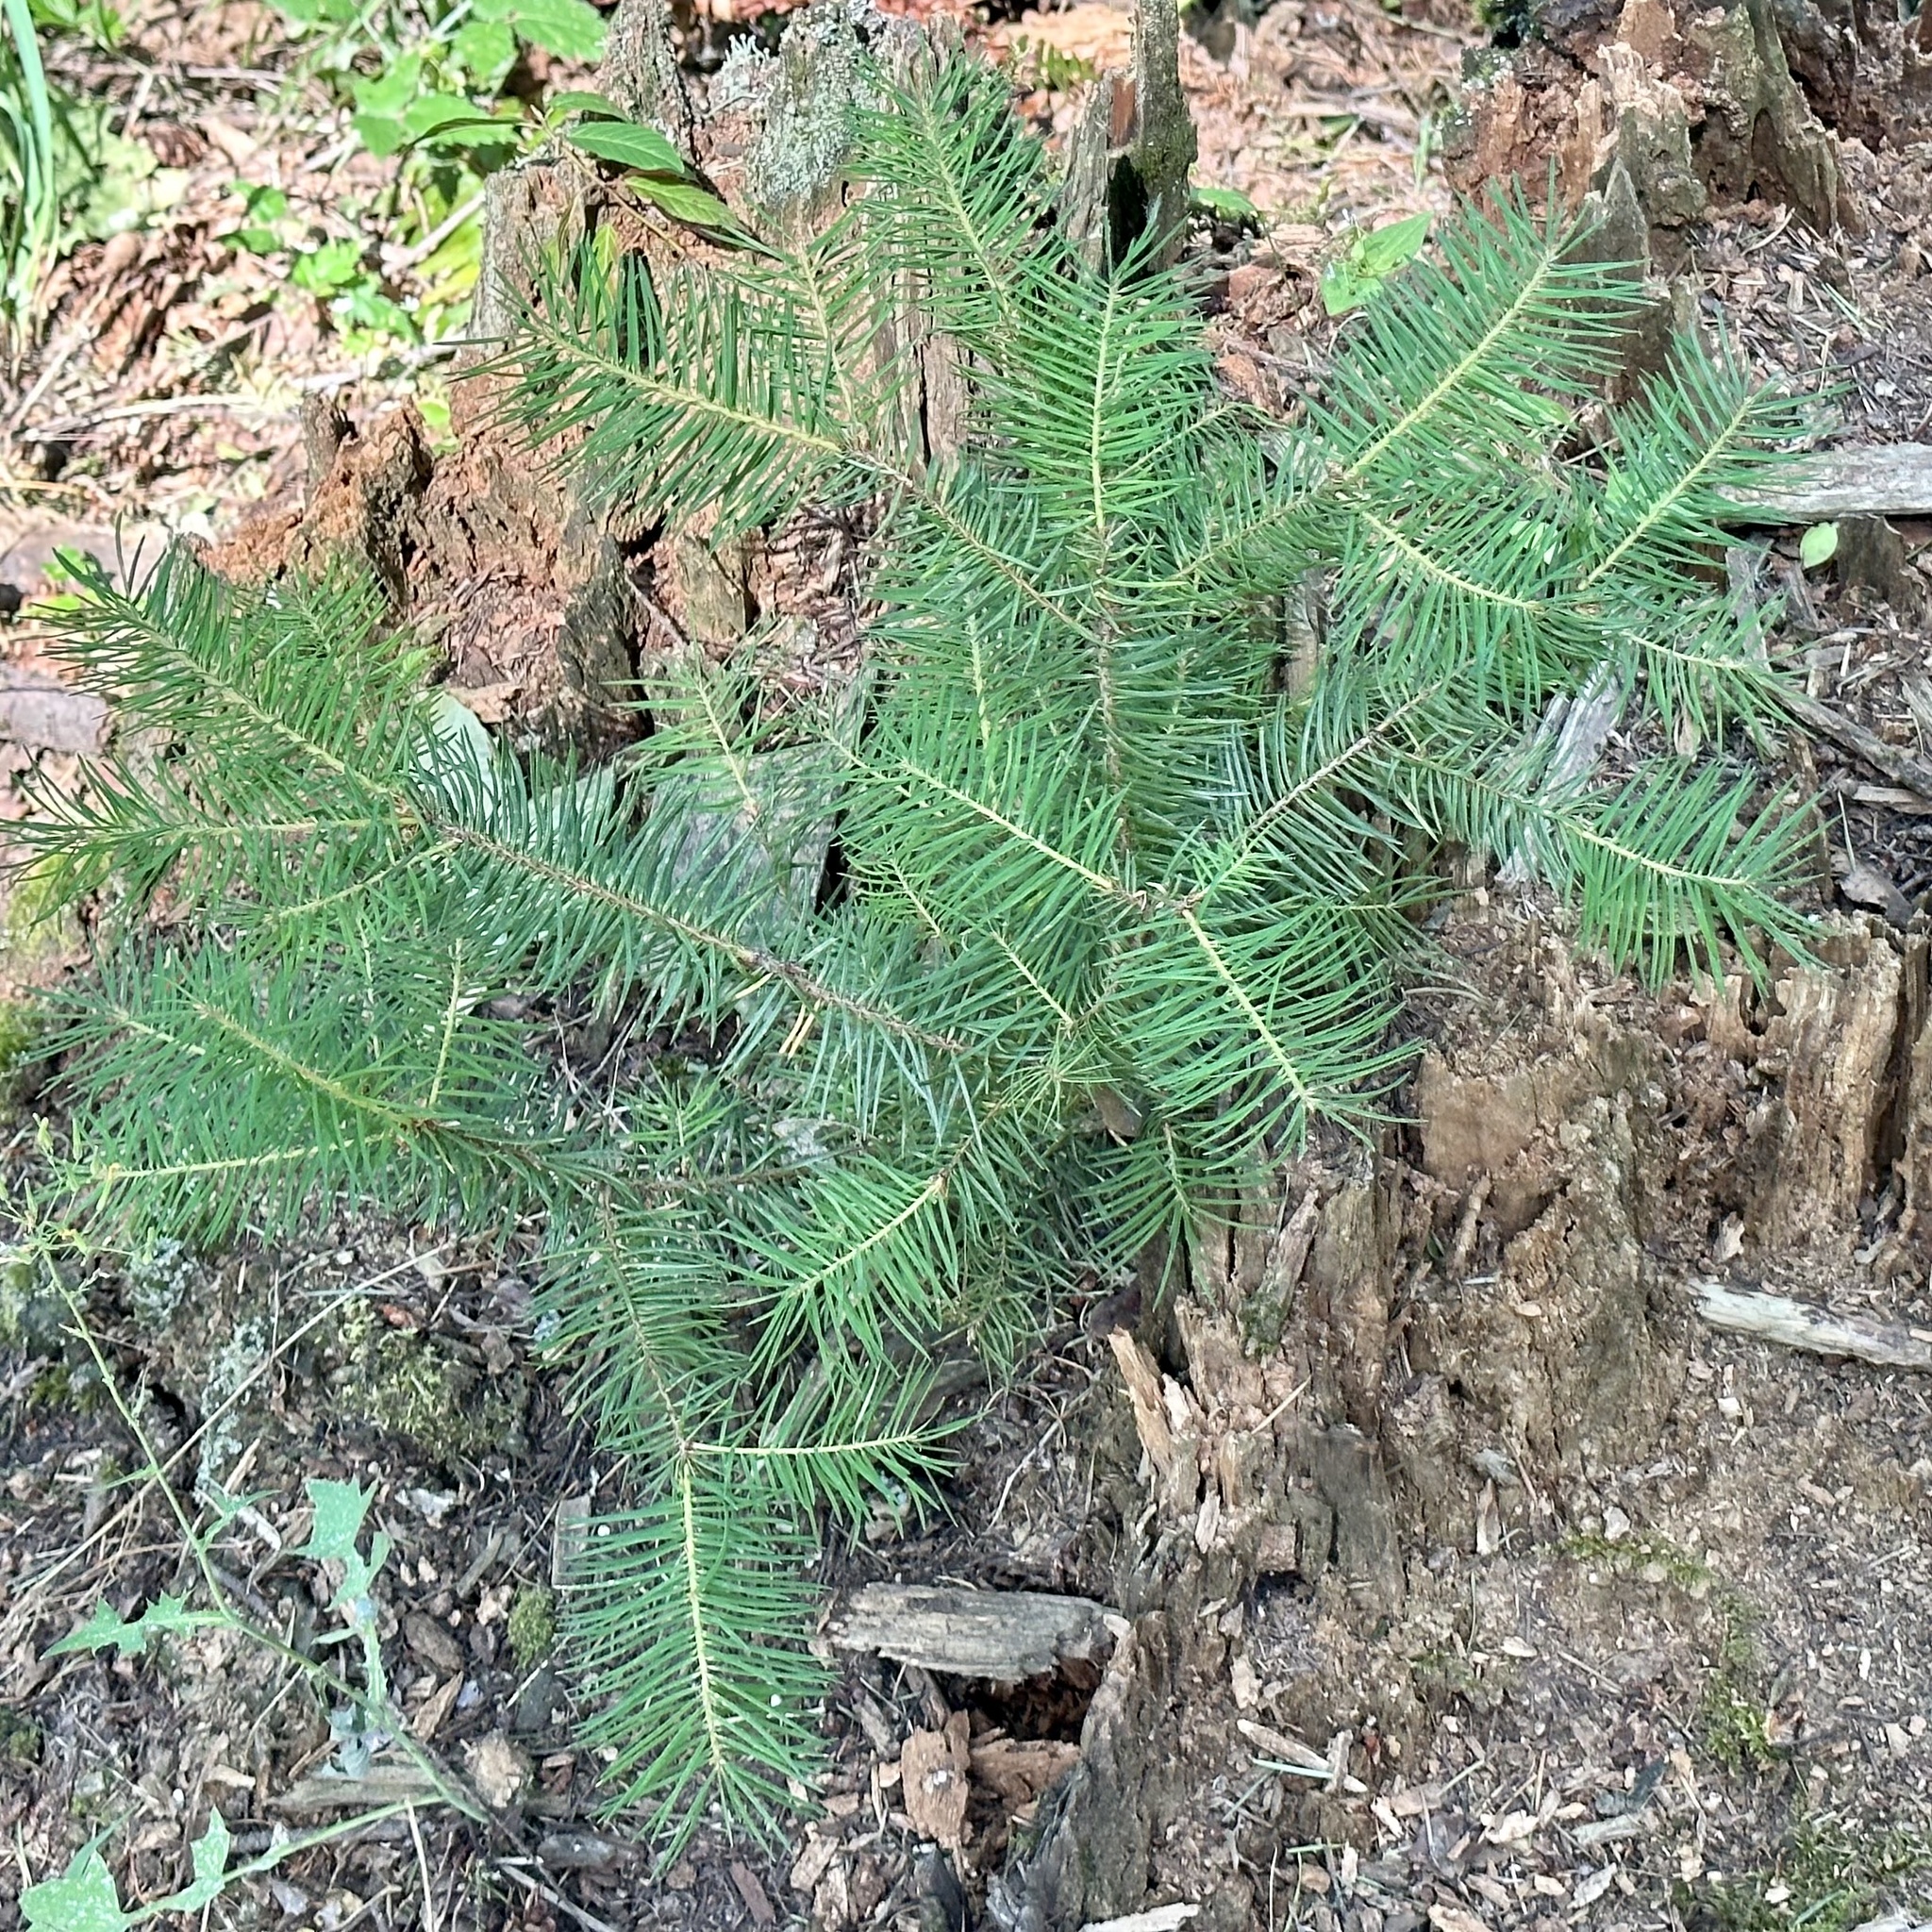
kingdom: Plantae
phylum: Tracheophyta
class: Pinopsida
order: Pinales
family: Pinaceae
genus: Pseudotsuga
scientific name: Pseudotsuga menziesii
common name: Douglas fir
